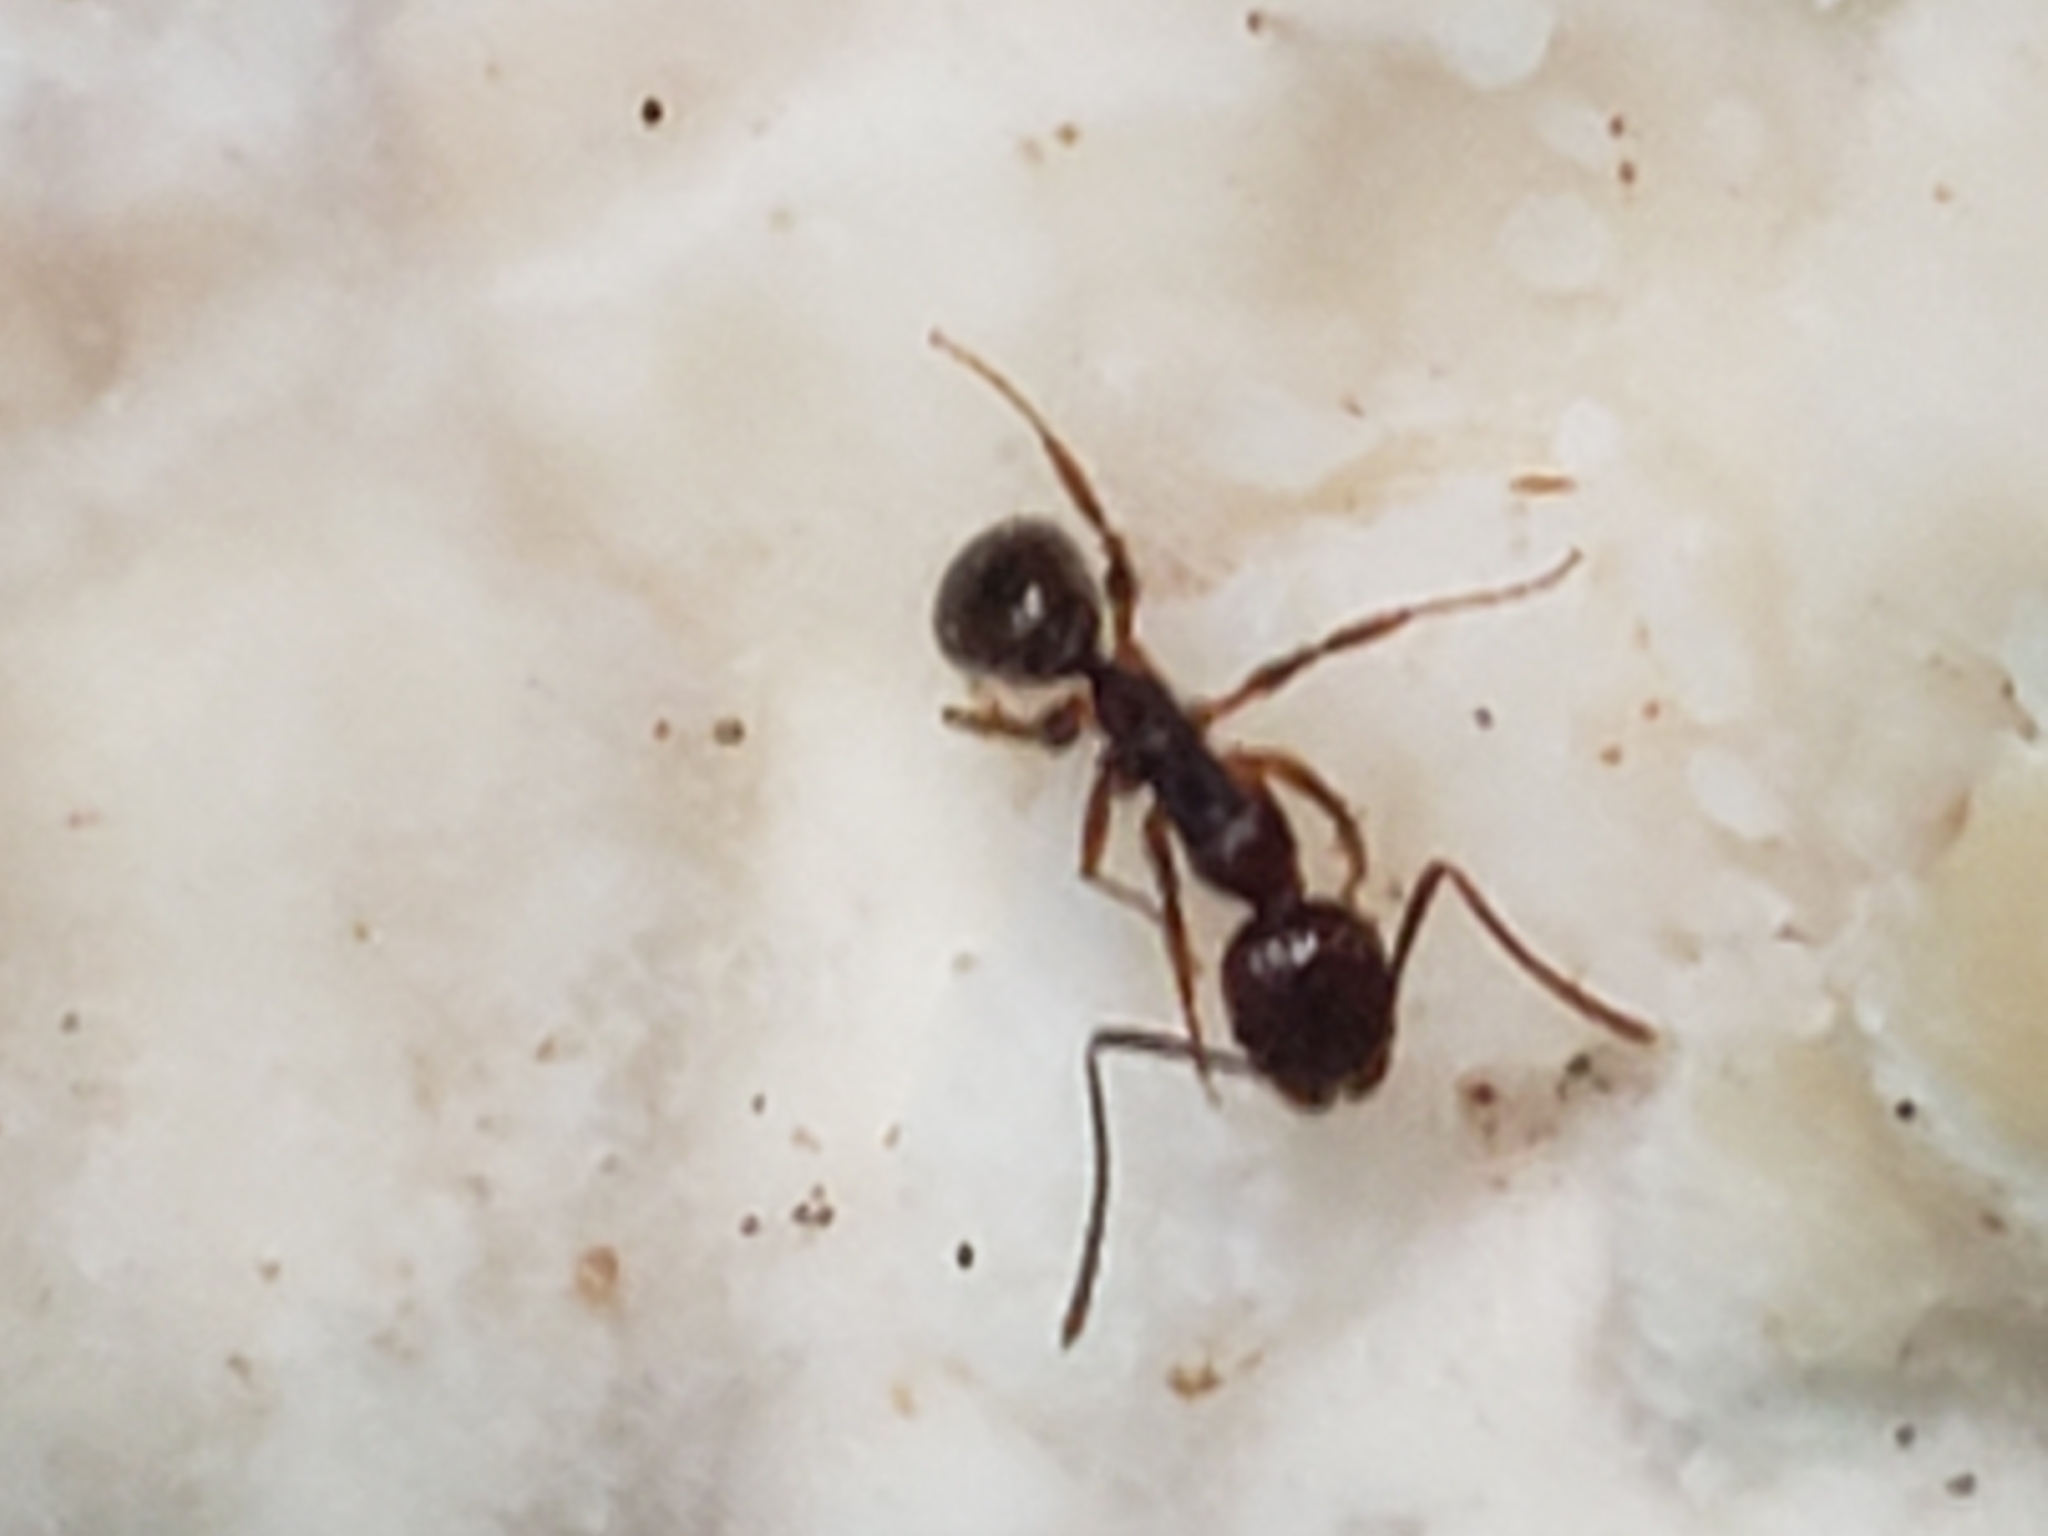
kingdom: Animalia
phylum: Arthropoda
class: Insecta
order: Hymenoptera
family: Formicidae
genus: Aphaenogaster
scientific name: Aphaenogaster rudis
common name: Winnow ant
